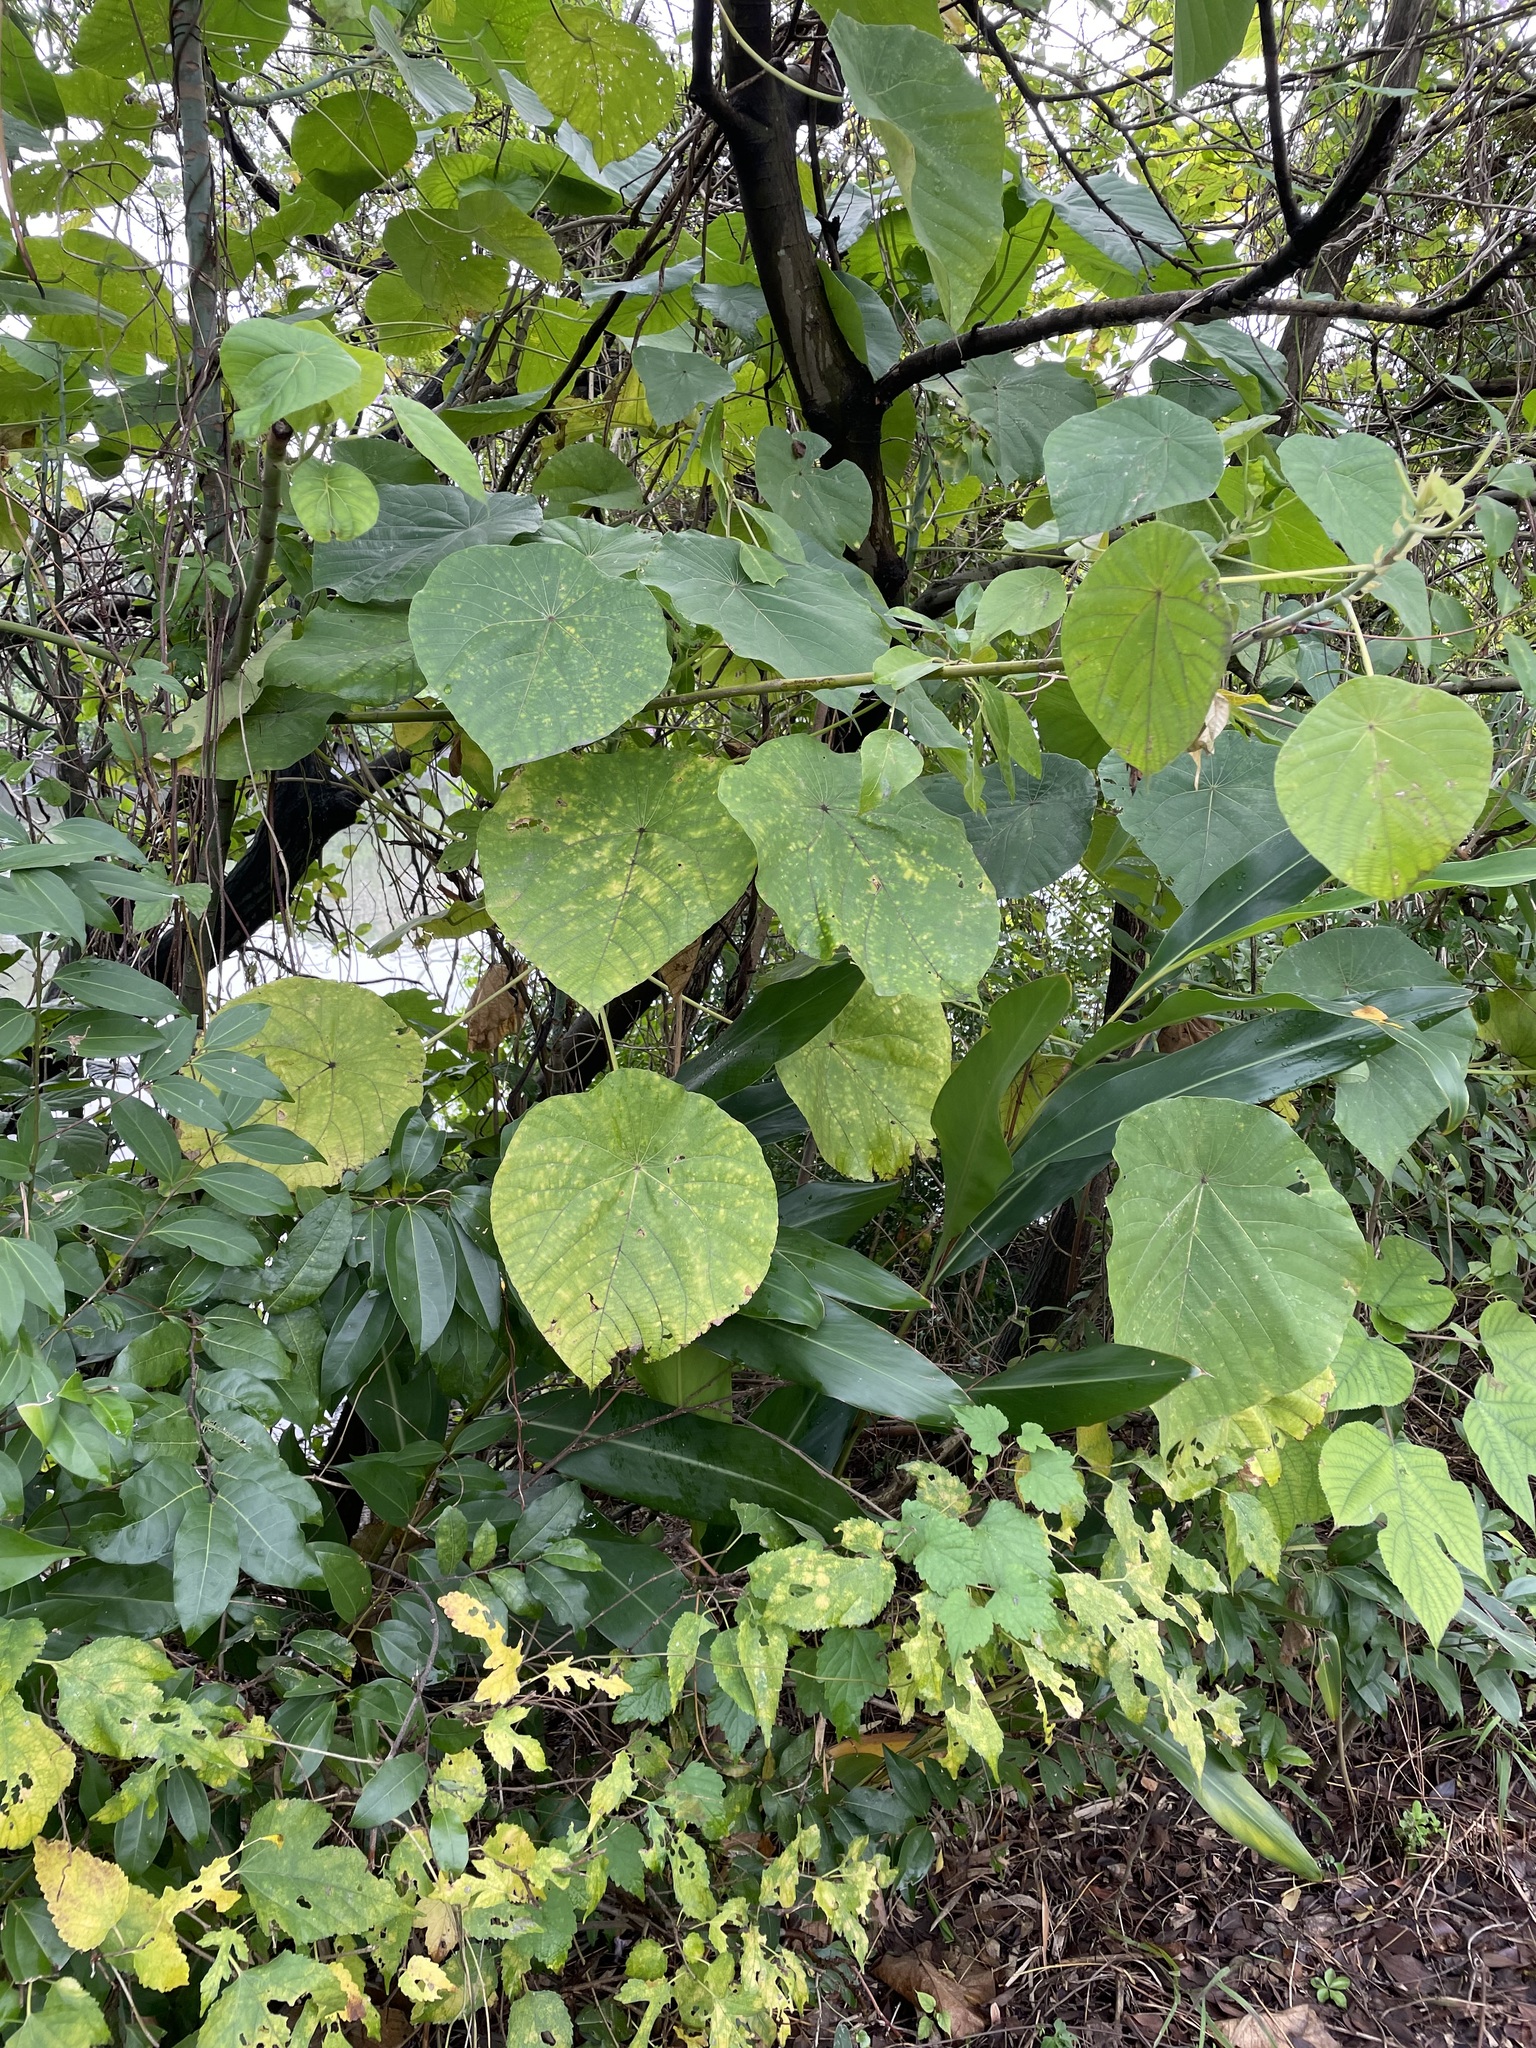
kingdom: Plantae
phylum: Tracheophyta
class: Magnoliopsida
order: Malpighiales
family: Euphorbiaceae
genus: Macaranga
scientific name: Macaranga tanarius
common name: Parasol leaf tree
